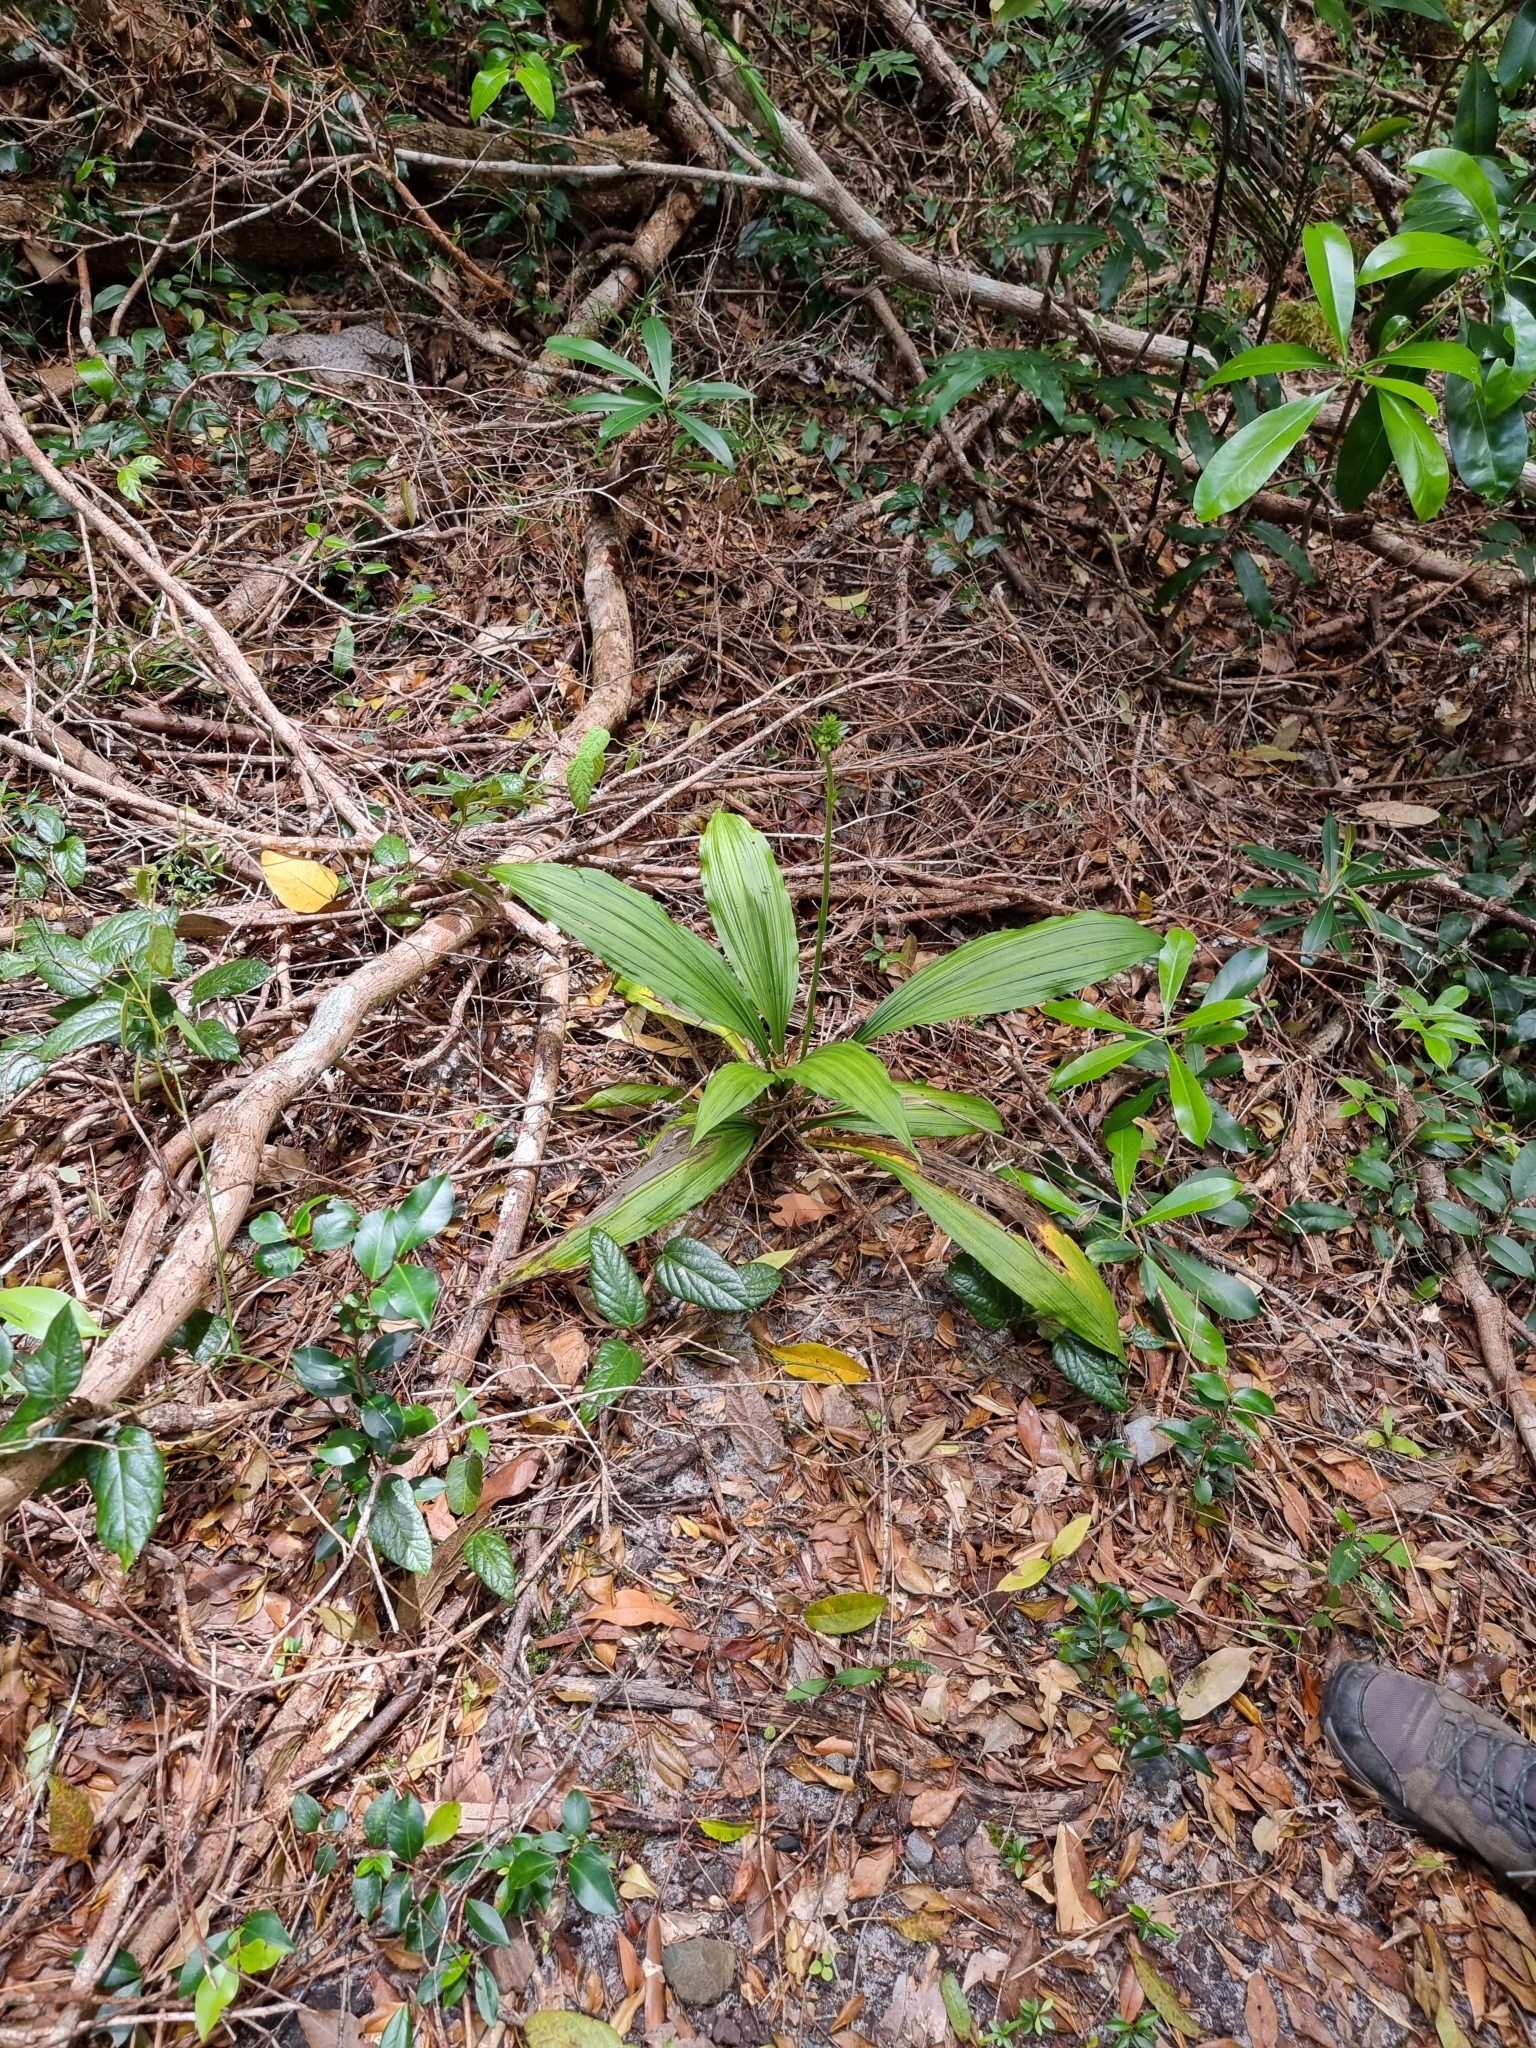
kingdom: Plantae
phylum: Tracheophyta
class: Liliopsida
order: Asparagales
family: Orchidaceae
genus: Calanthe
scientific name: Calanthe triplicata
